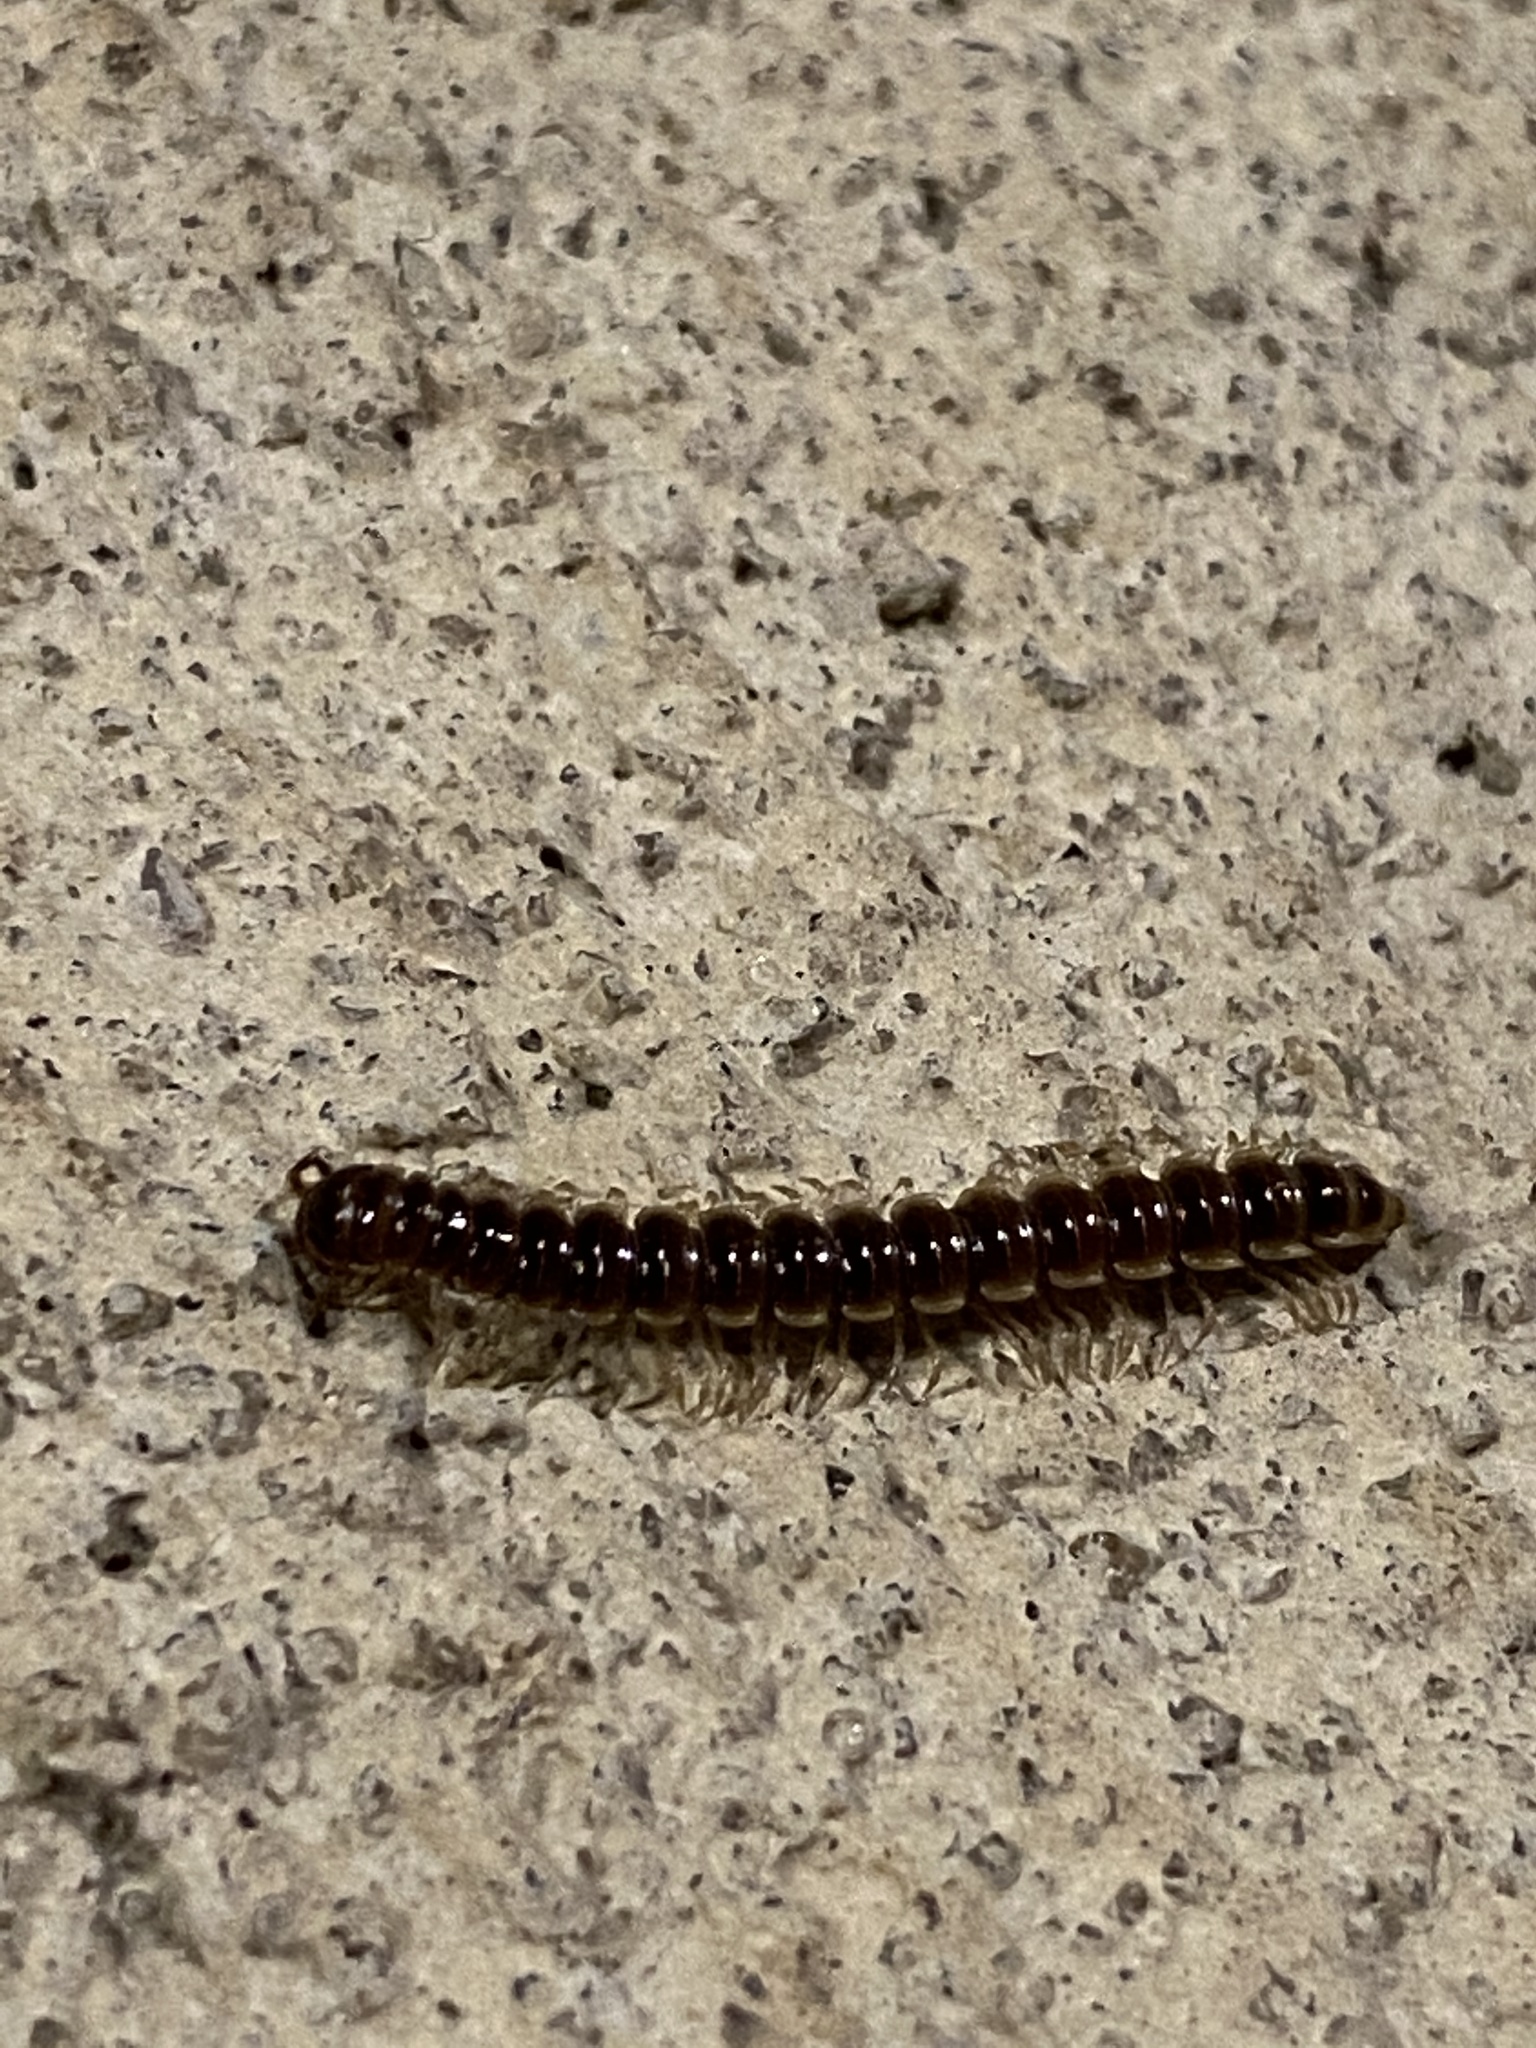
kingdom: Animalia
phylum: Arthropoda
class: Diplopoda
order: Polydesmida
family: Paradoxosomatidae
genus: Oxidus
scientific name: Oxidus gracilis
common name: Greenhouse millipede
